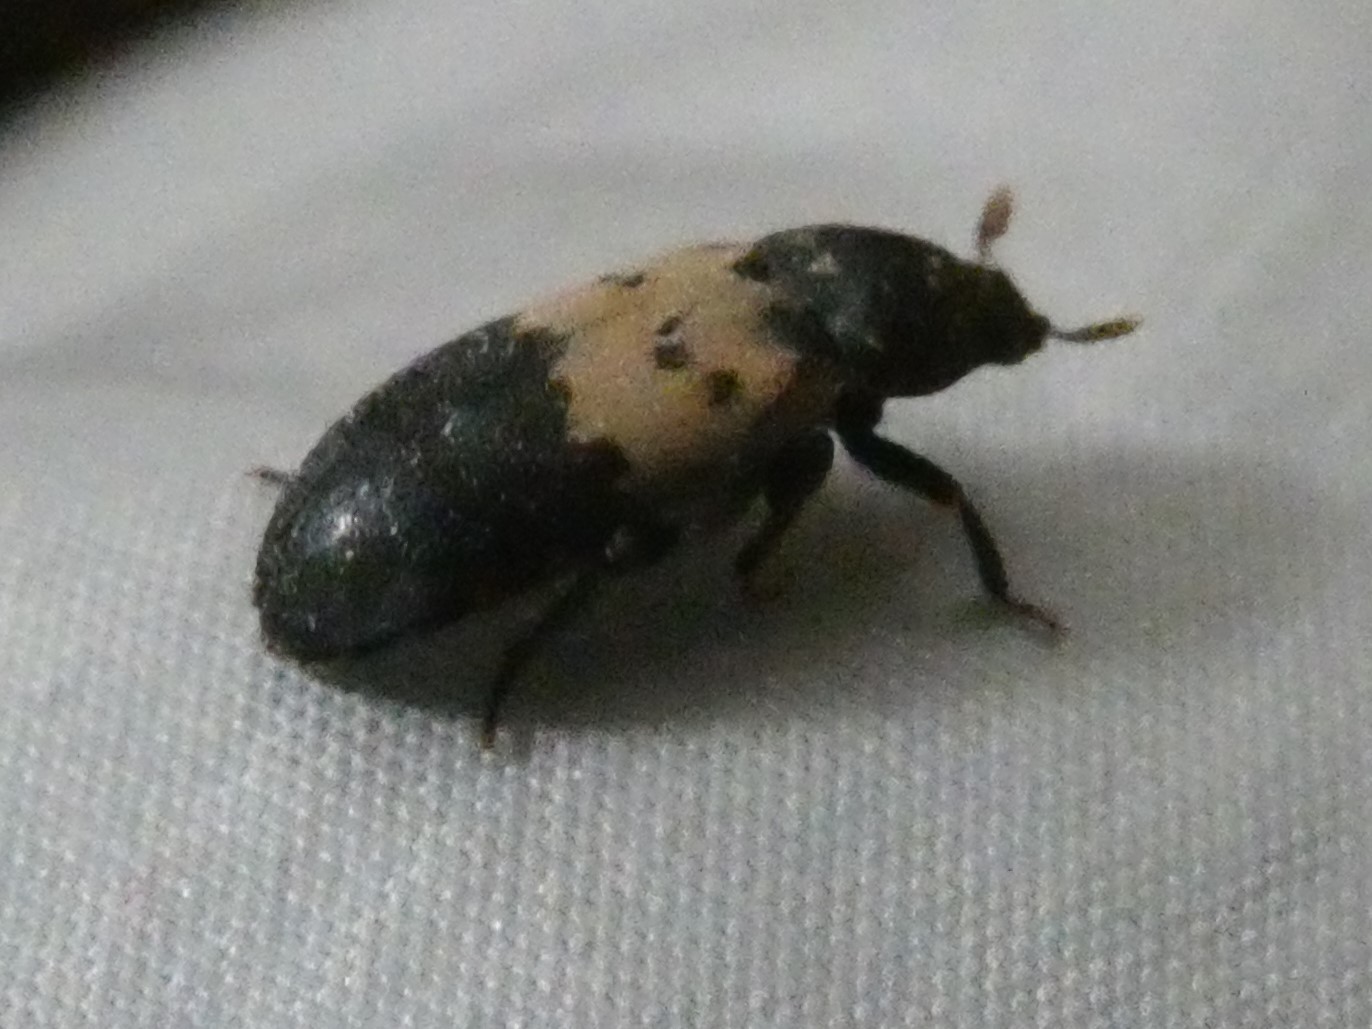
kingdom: Animalia
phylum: Arthropoda
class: Insecta
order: Coleoptera
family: Dermestidae
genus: Dermestes
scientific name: Dermestes lardarius
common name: Larder beetle
